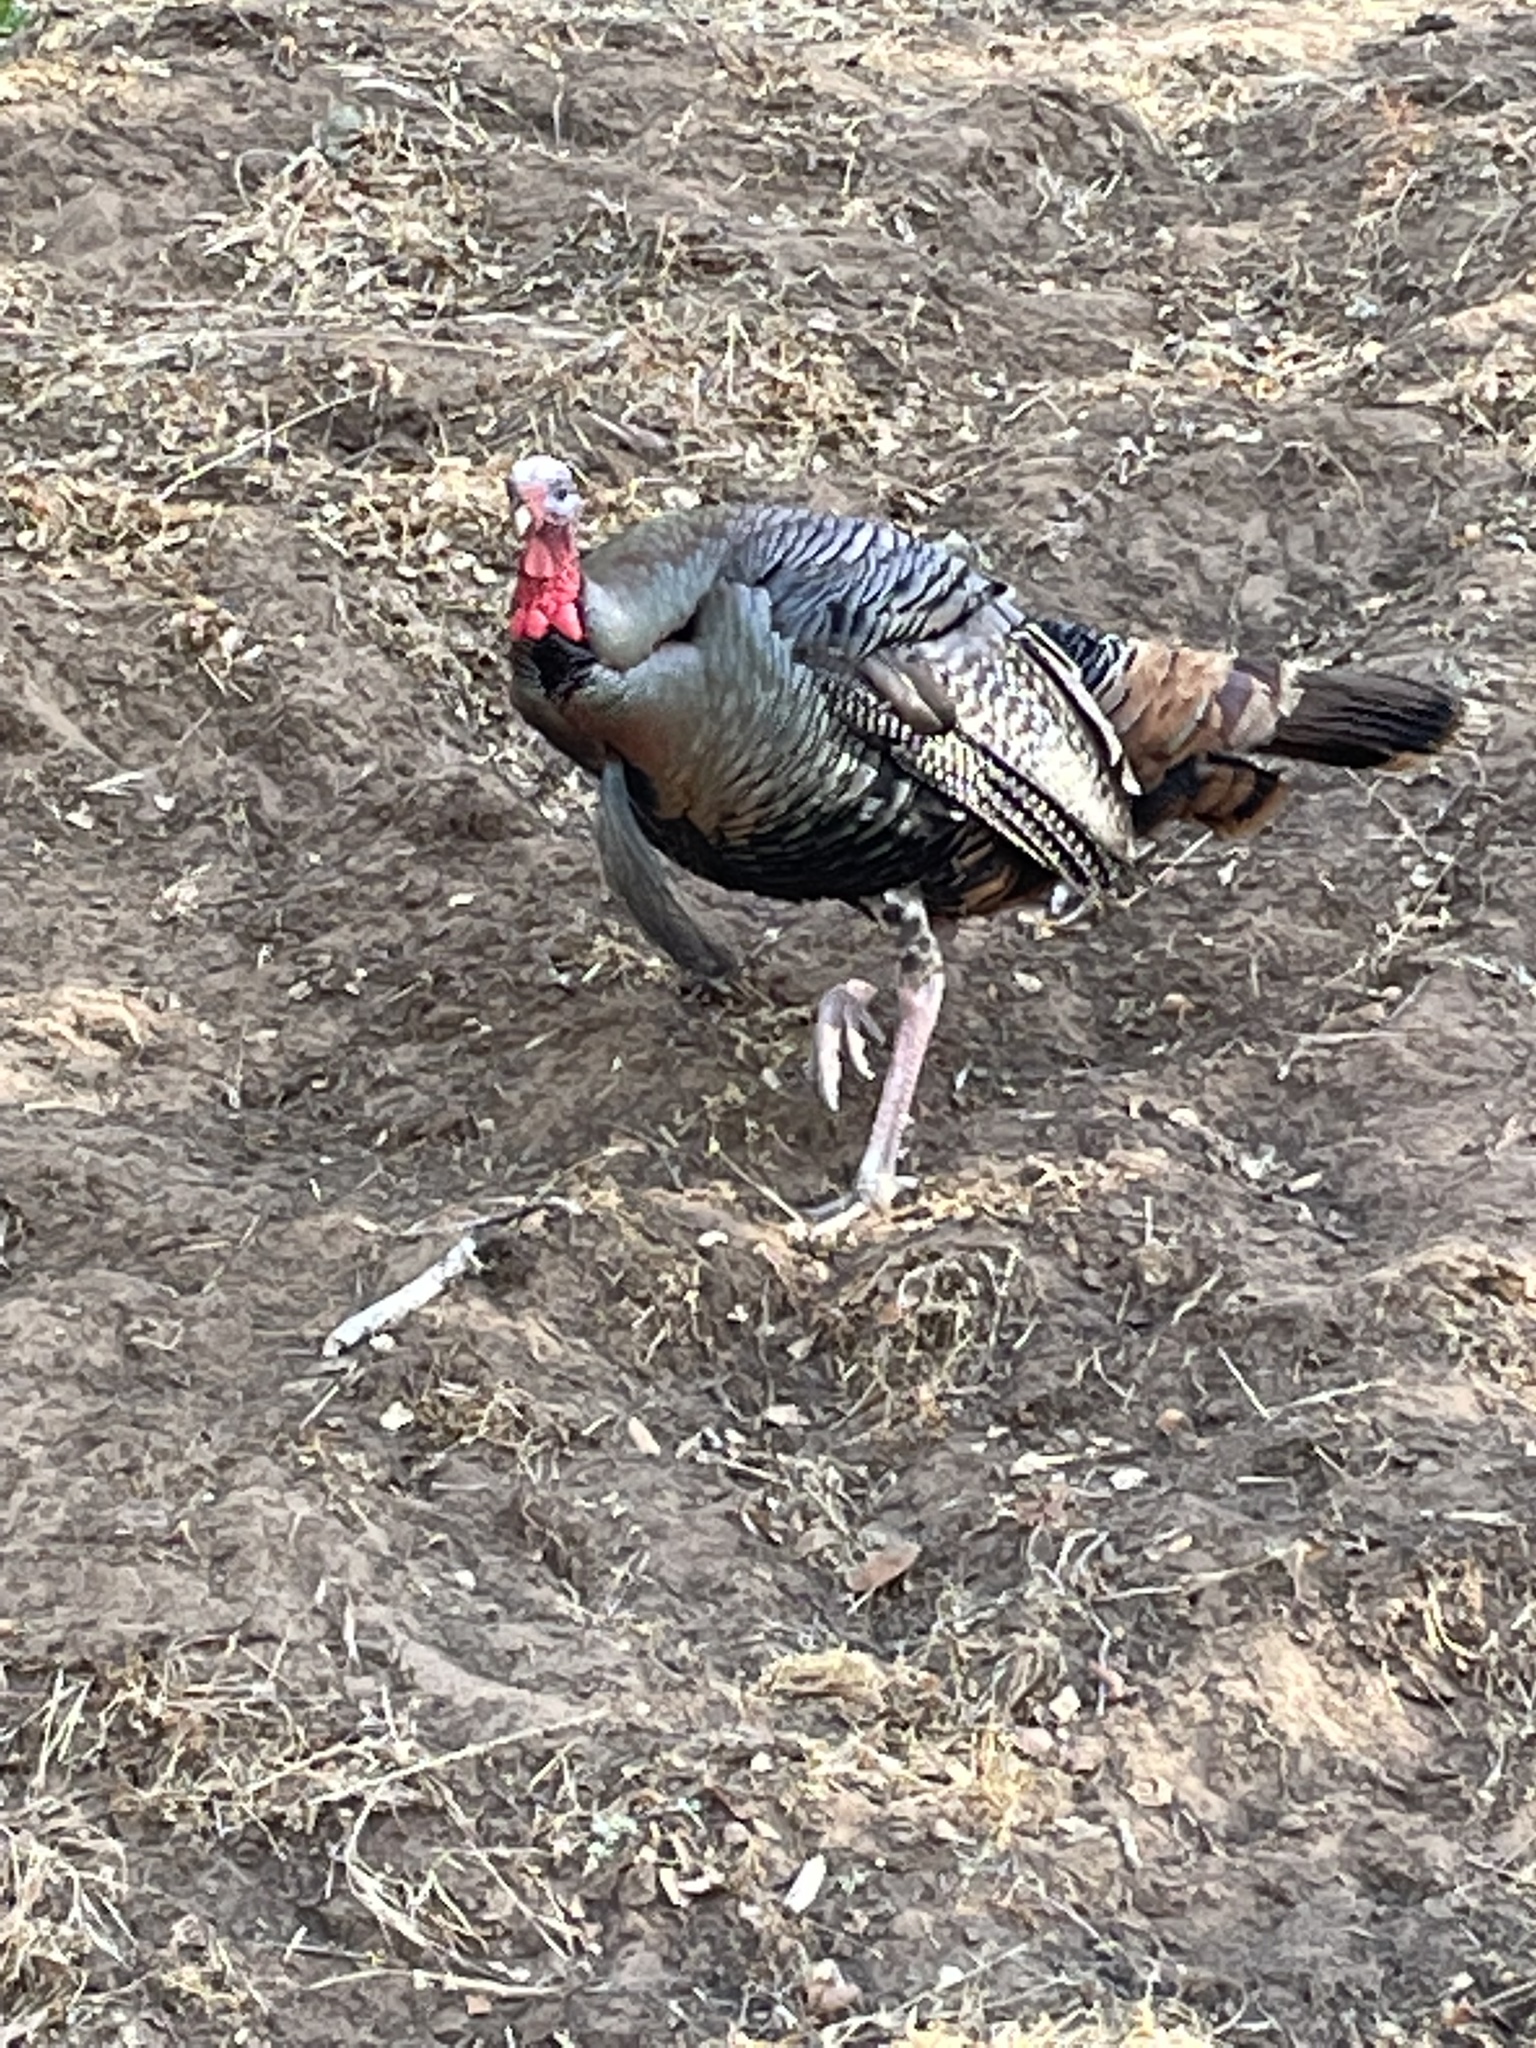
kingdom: Animalia
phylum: Chordata
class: Aves
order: Galliformes
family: Phasianidae
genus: Meleagris
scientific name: Meleagris gallopavo
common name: Wild turkey
